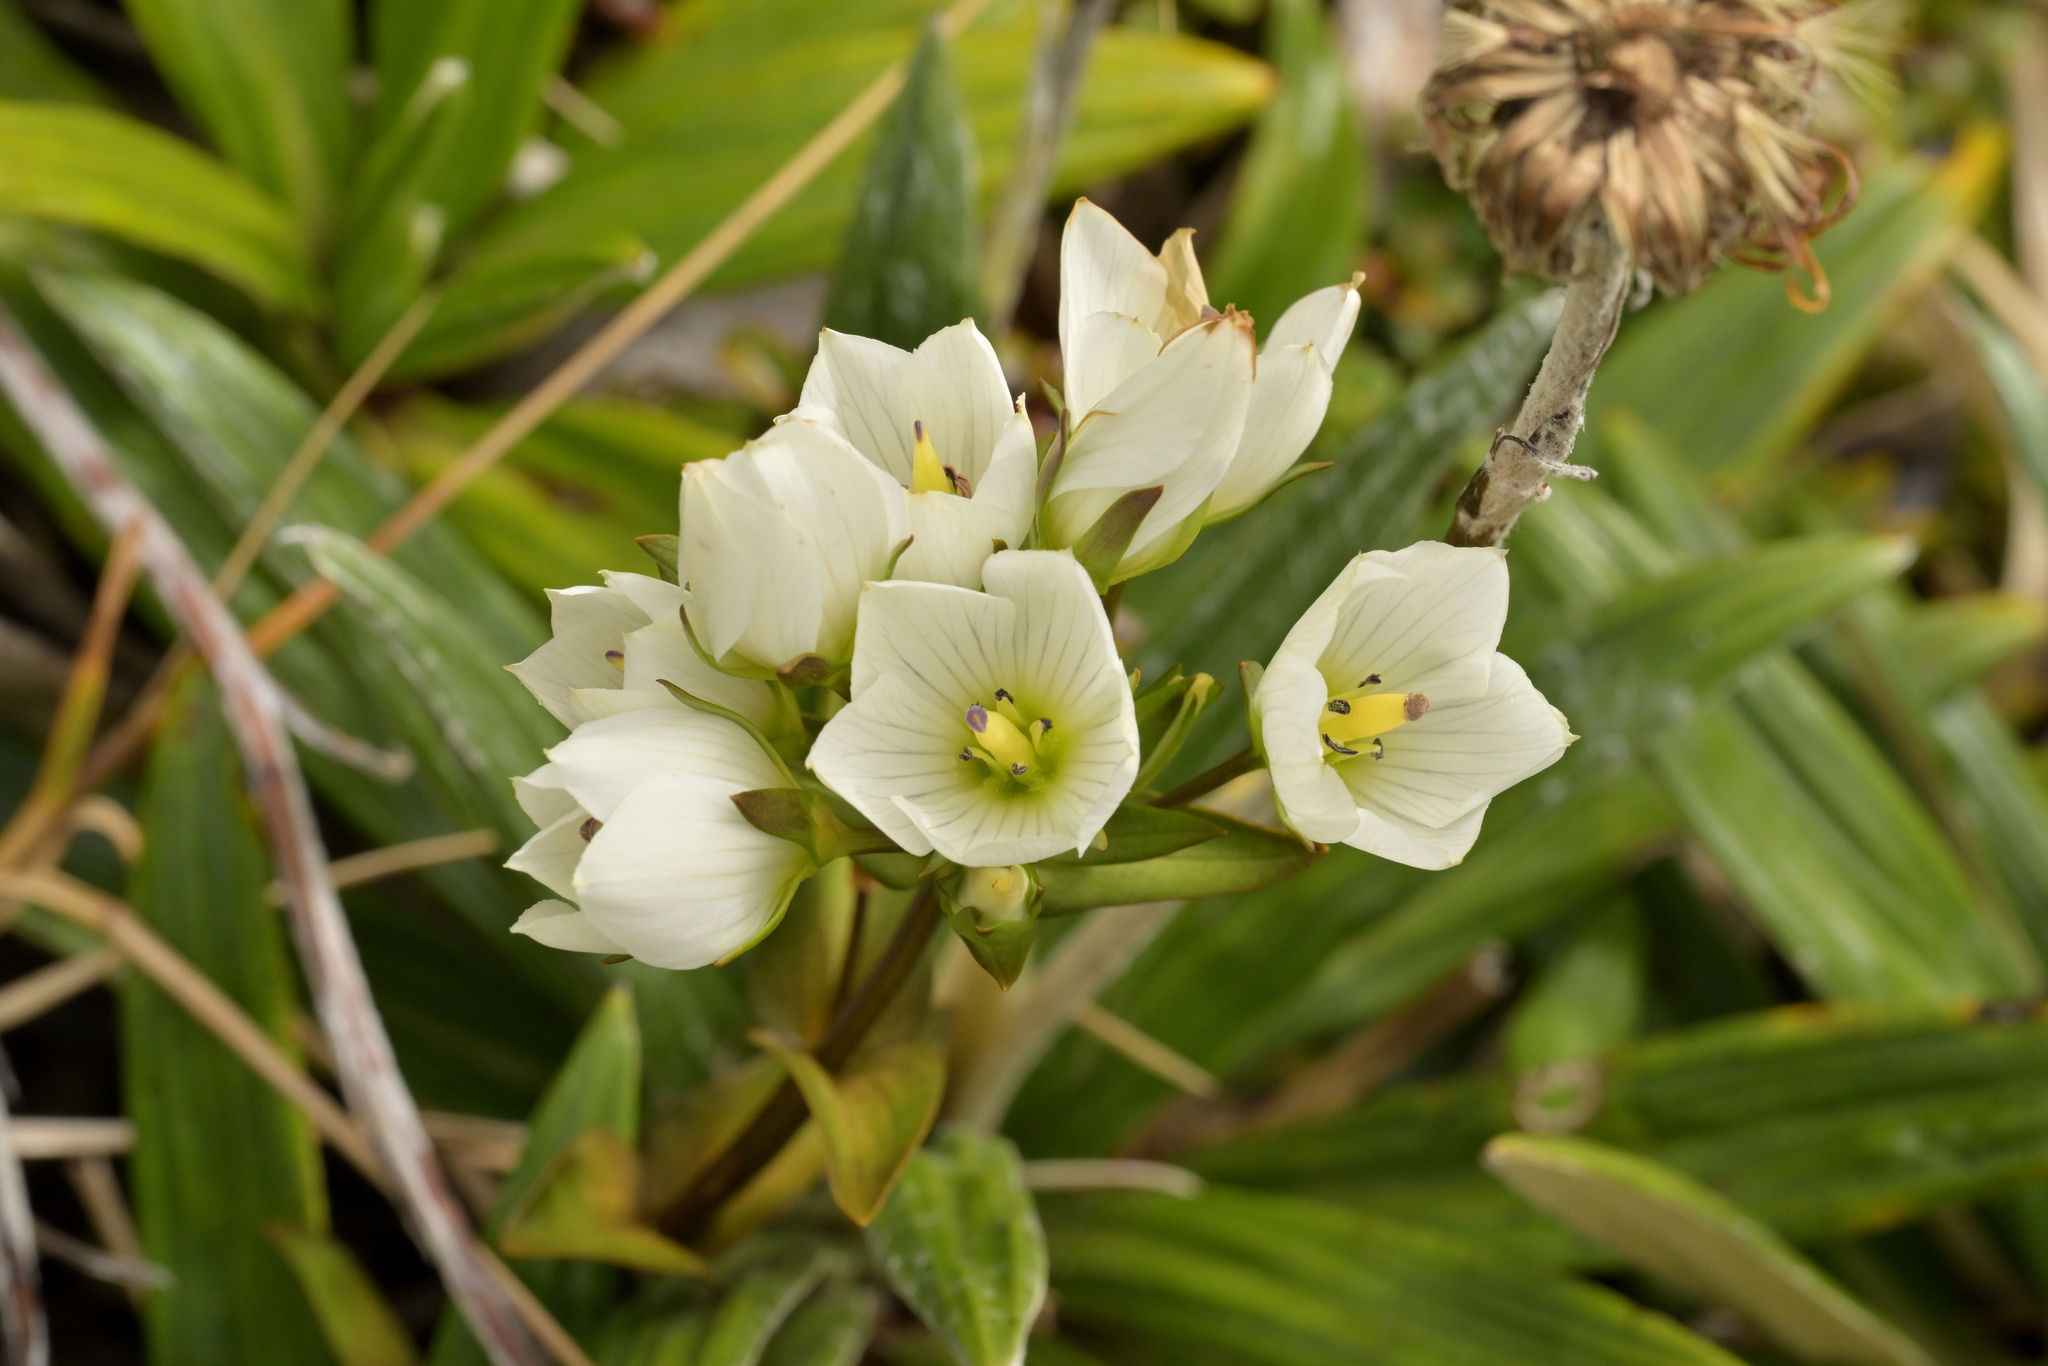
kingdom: Plantae
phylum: Tracheophyta
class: Magnoliopsida
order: Gentianales
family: Gentianaceae
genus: Gentianella
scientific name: Gentianella montana
